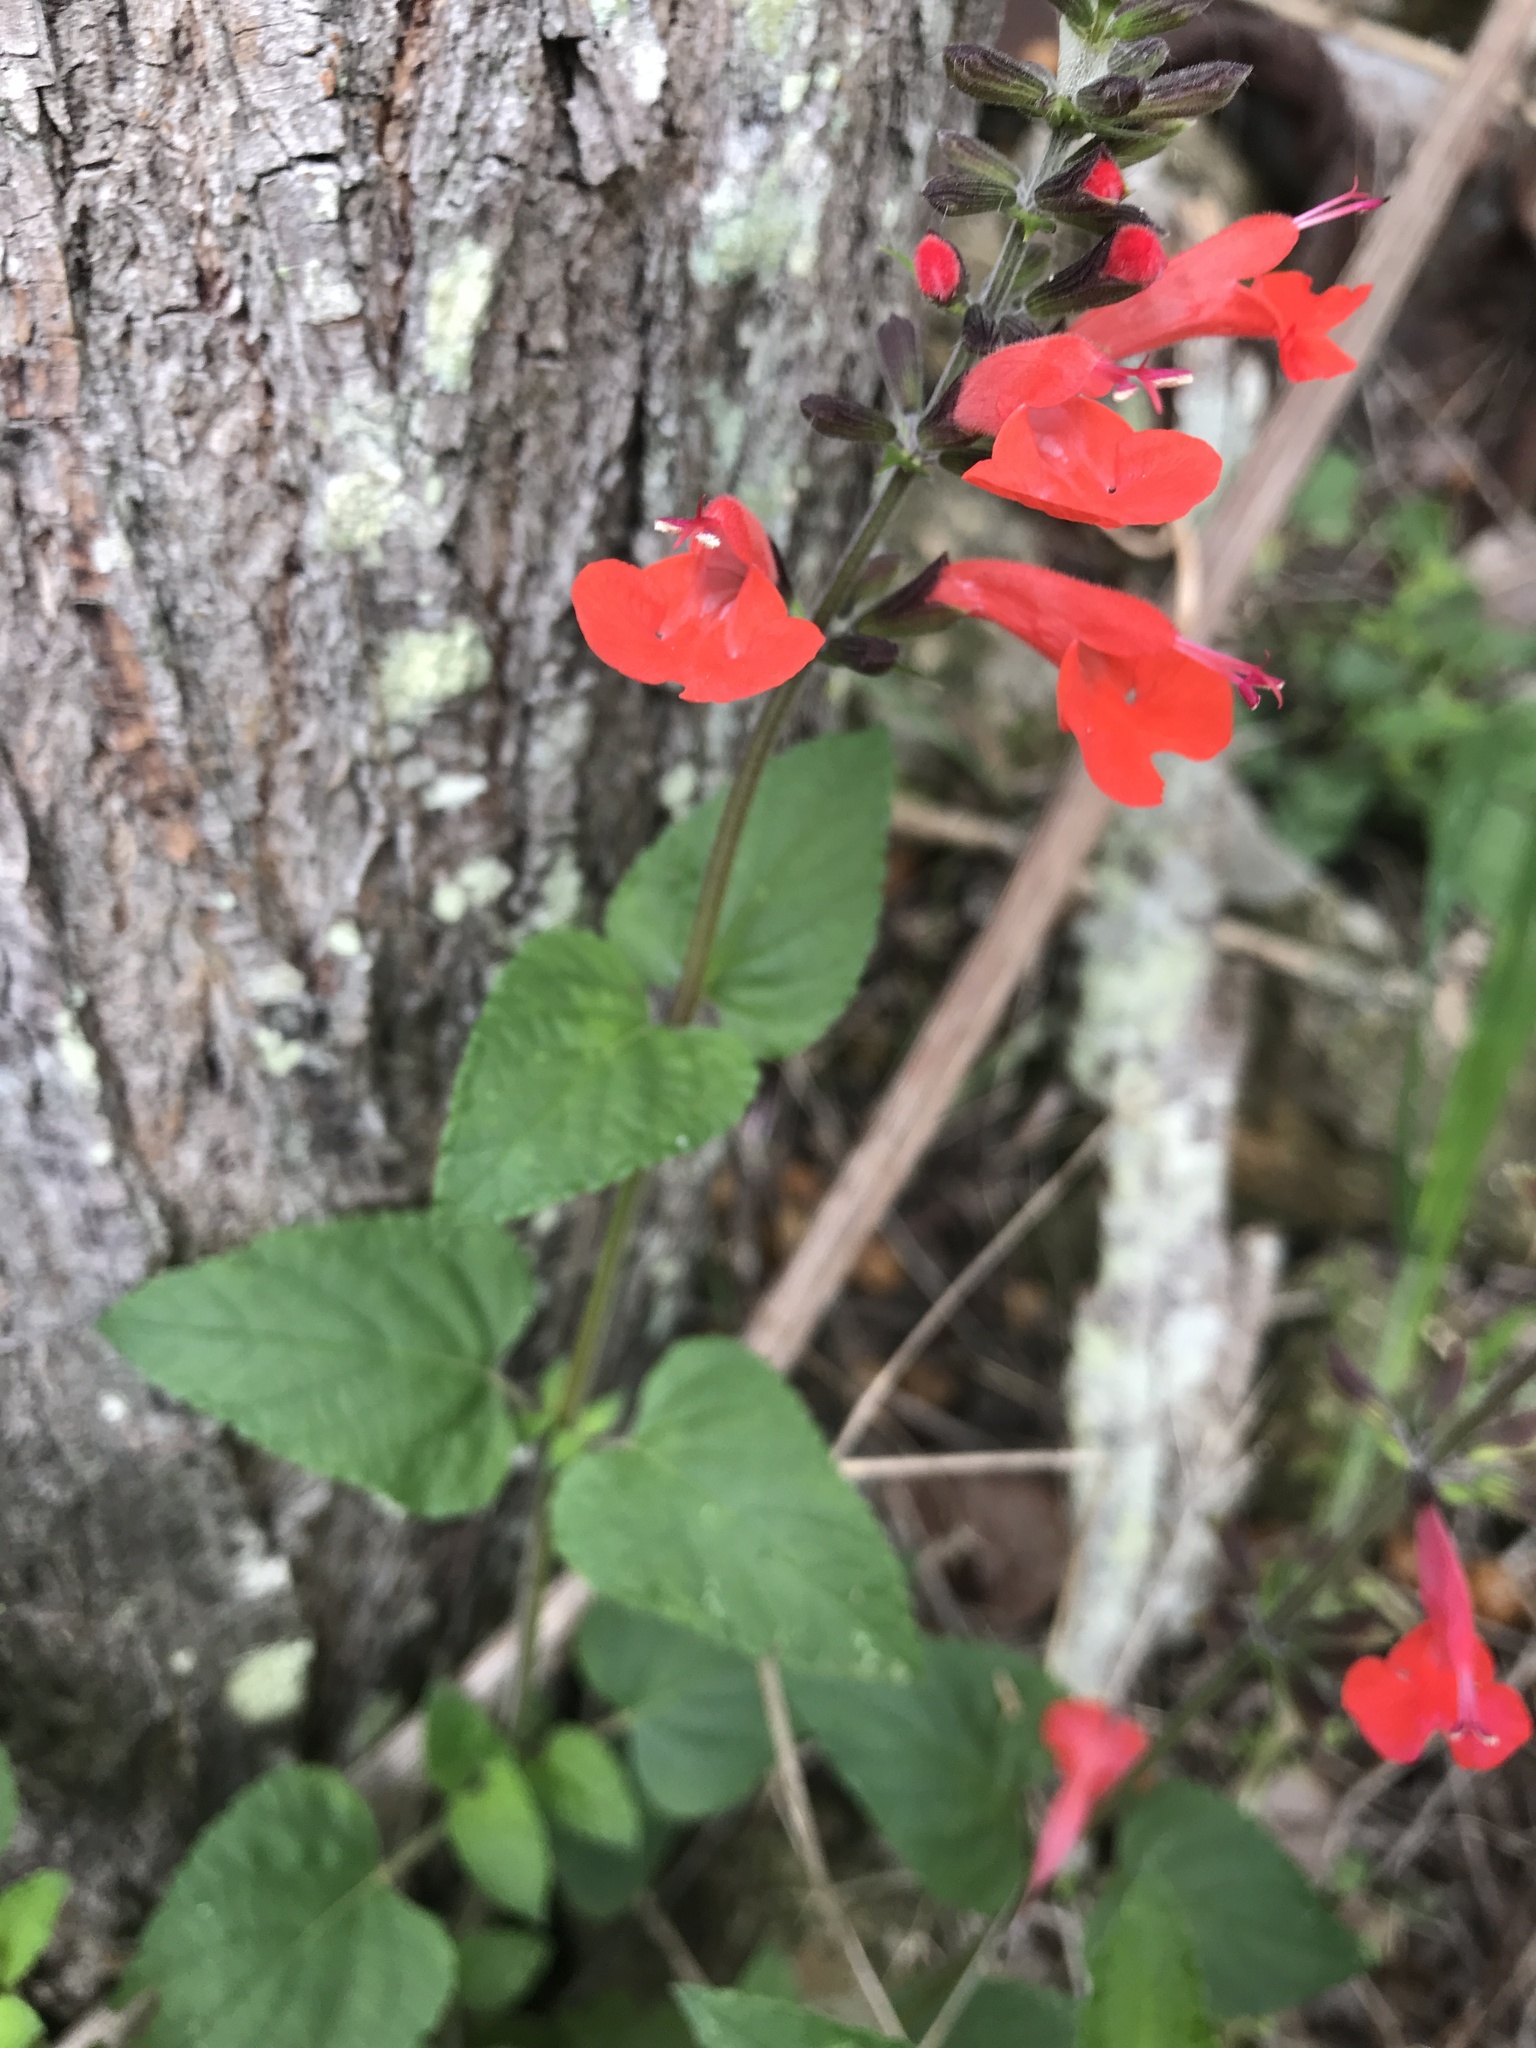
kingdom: Plantae
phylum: Tracheophyta
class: Magnoliopsida
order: Lamiales
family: Lamiaceae
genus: Salvia
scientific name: Salvia coccinea
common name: Blood sage
